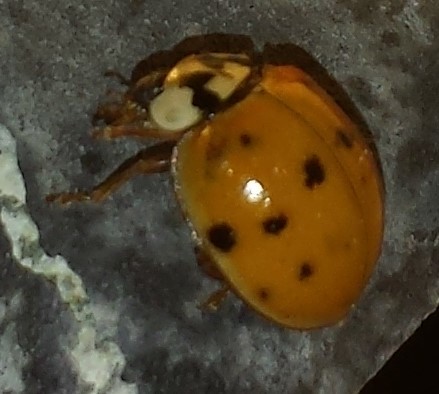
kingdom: Animalia
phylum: Arthropoda
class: Insecta
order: Coleoptera
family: Coccinellidae
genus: Harmonia
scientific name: Harmonia axyridis
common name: Harlequin ladybird
